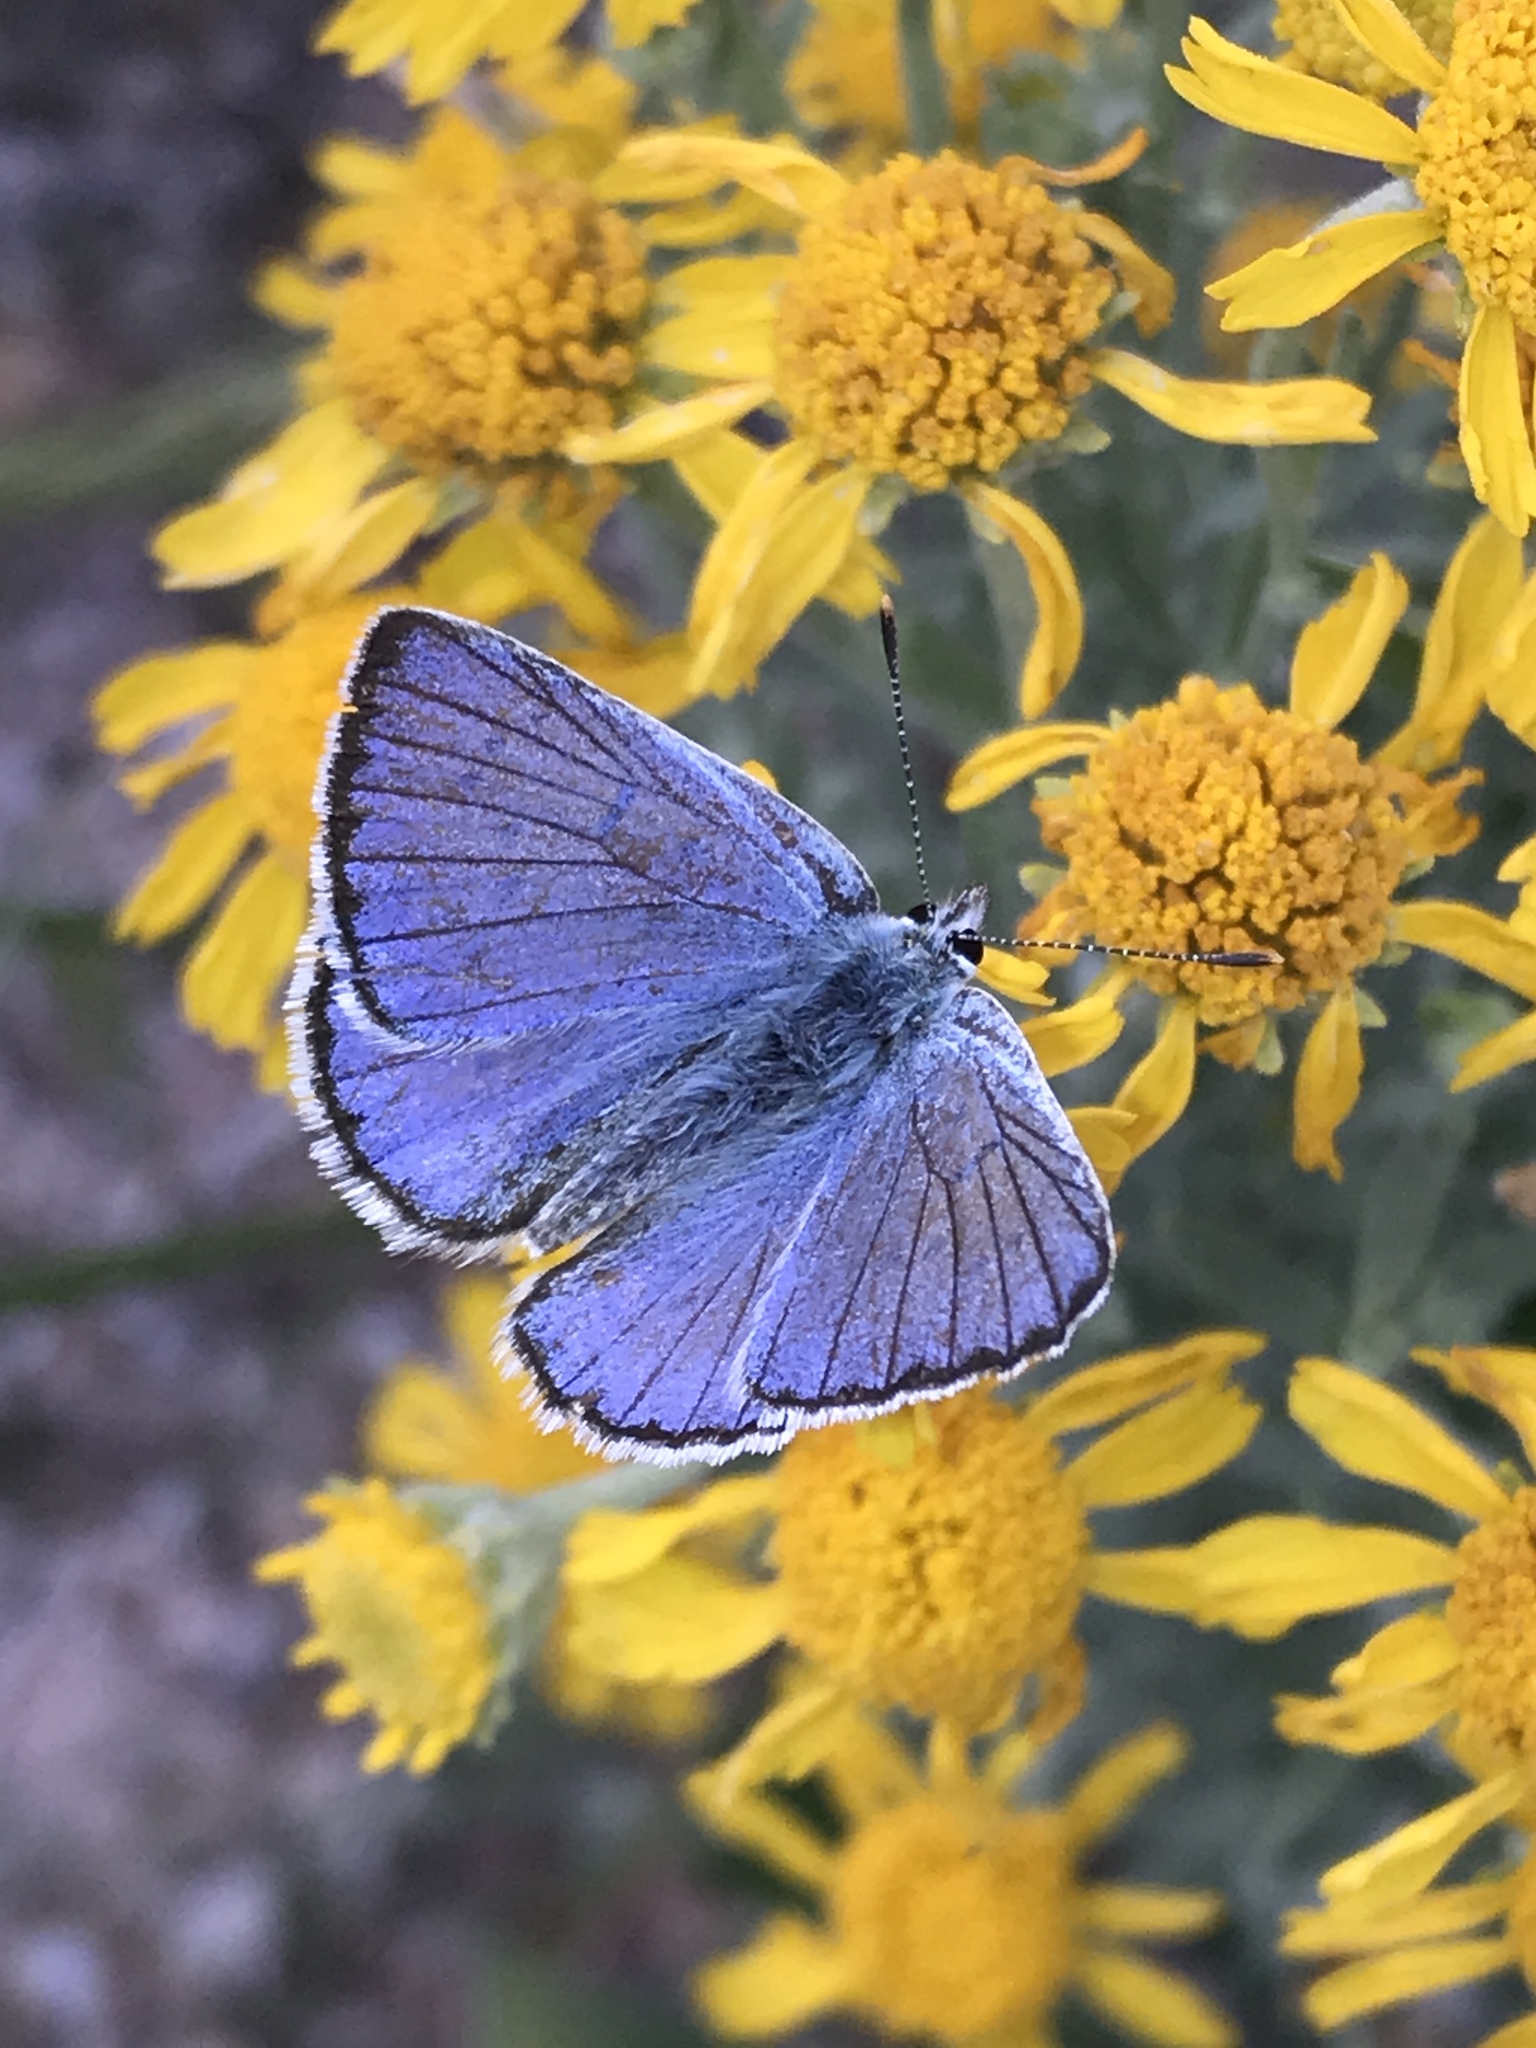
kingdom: Animalia
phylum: Arthropoda
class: Insecta
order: Lepidoptera
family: Lycaenidae
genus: Tharsalea
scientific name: Tharsalea heteronea
